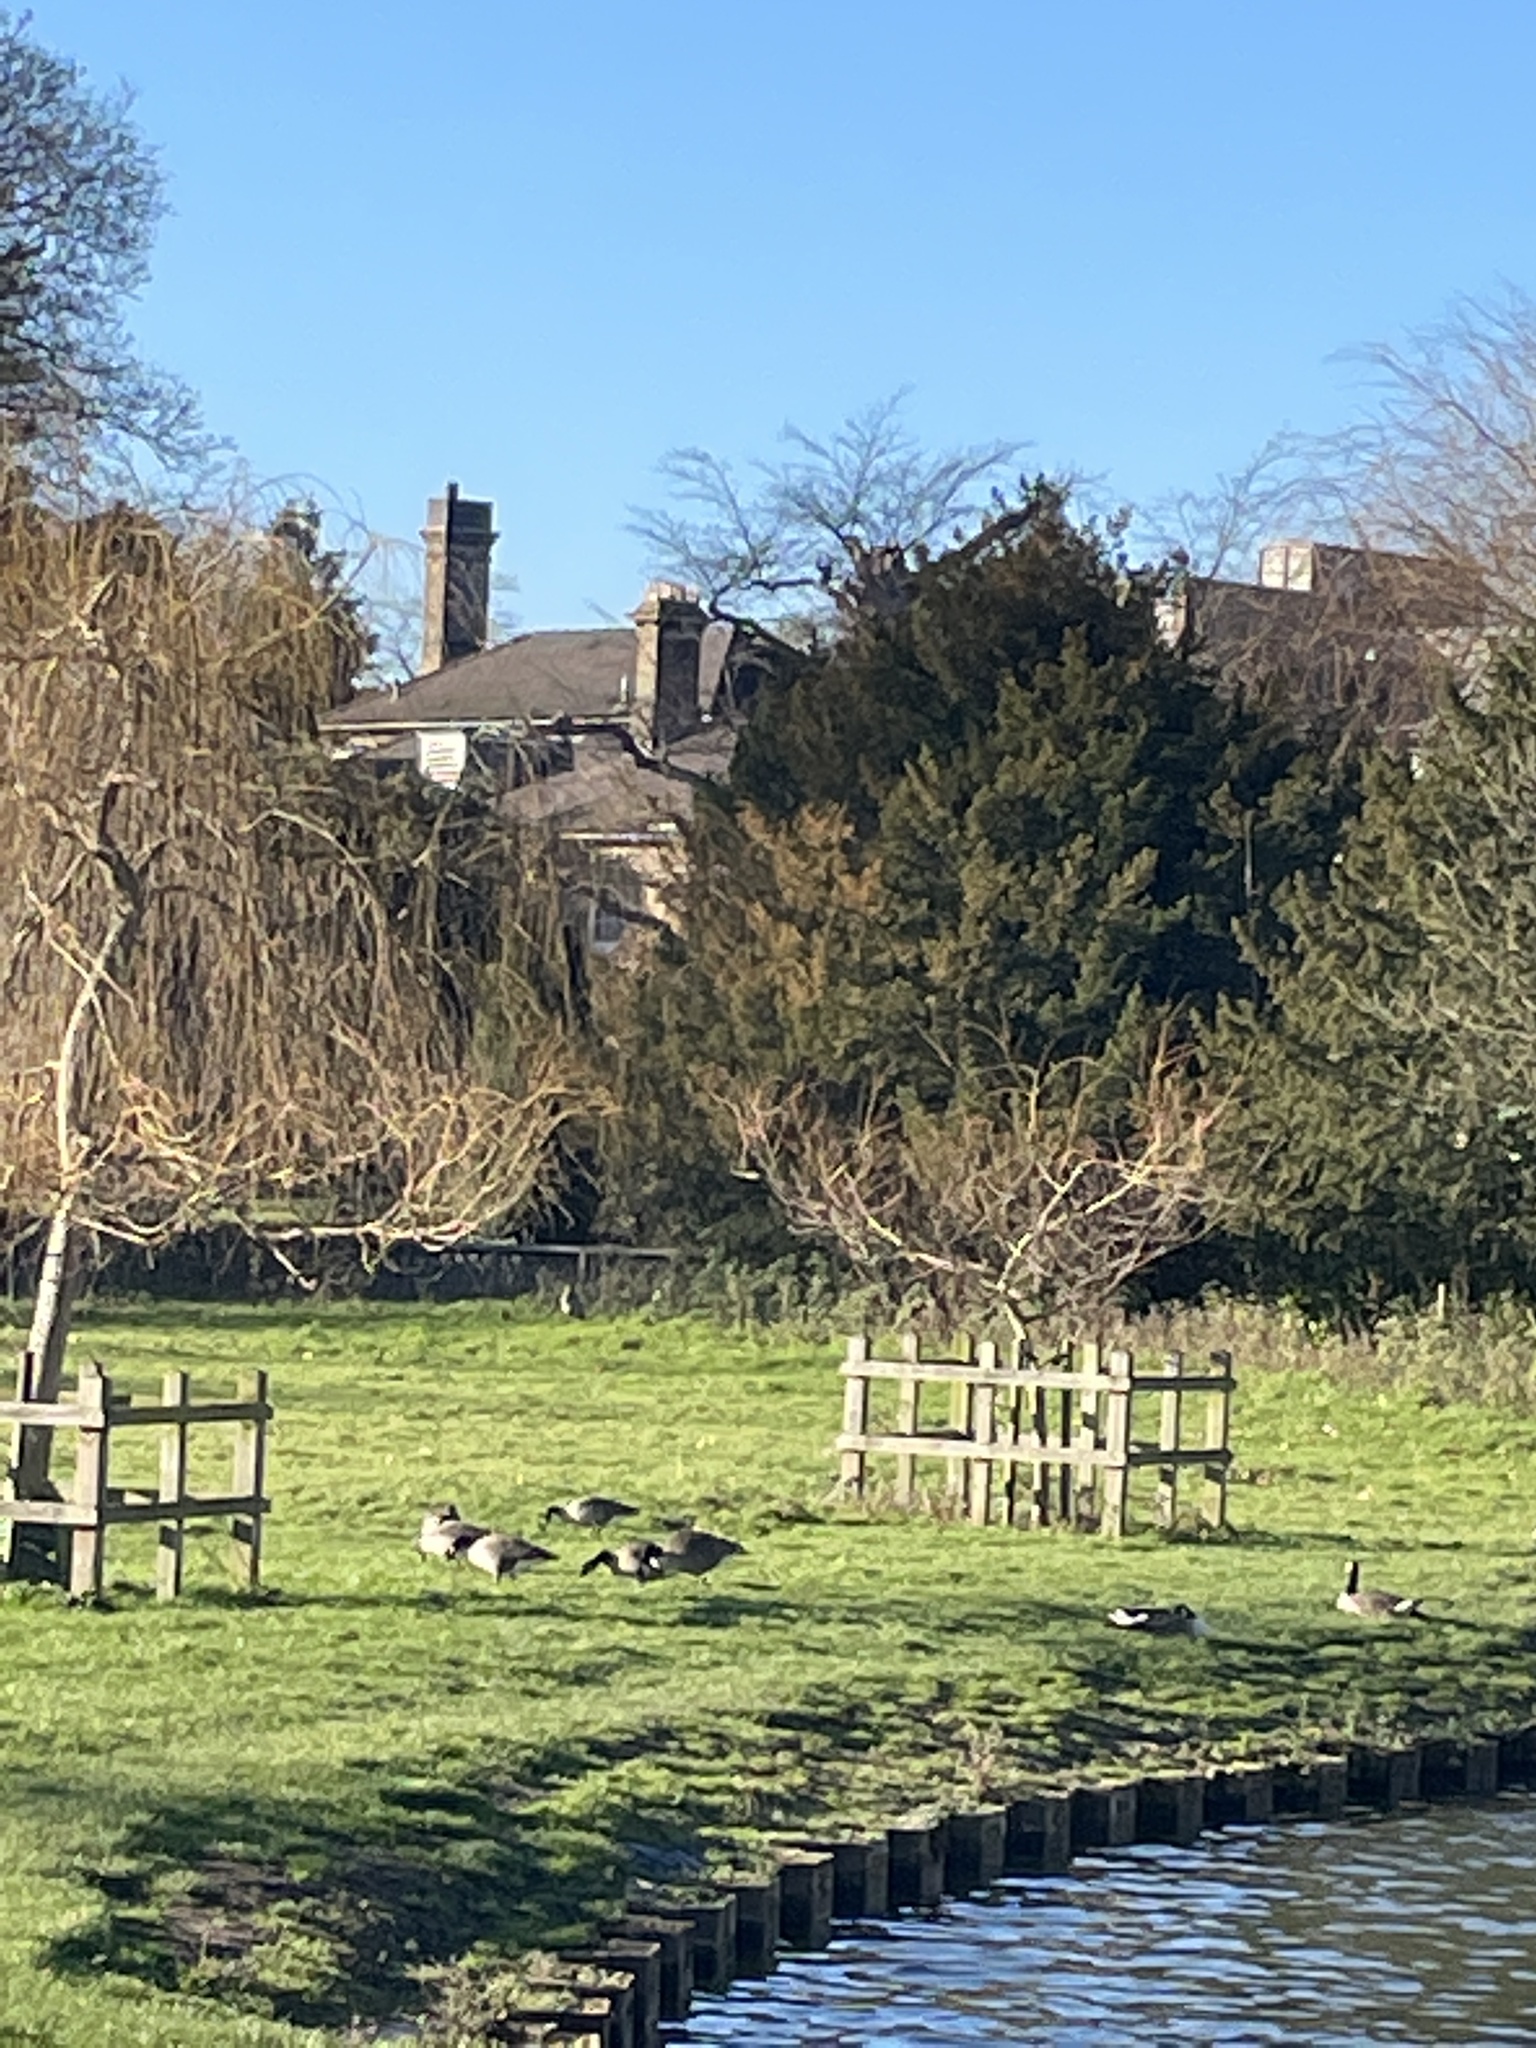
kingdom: Animalia
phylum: Chordata
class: Aves
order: Anseriformes
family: Anatidae
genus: Branta
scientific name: Branta canadensis
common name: Canada goose
